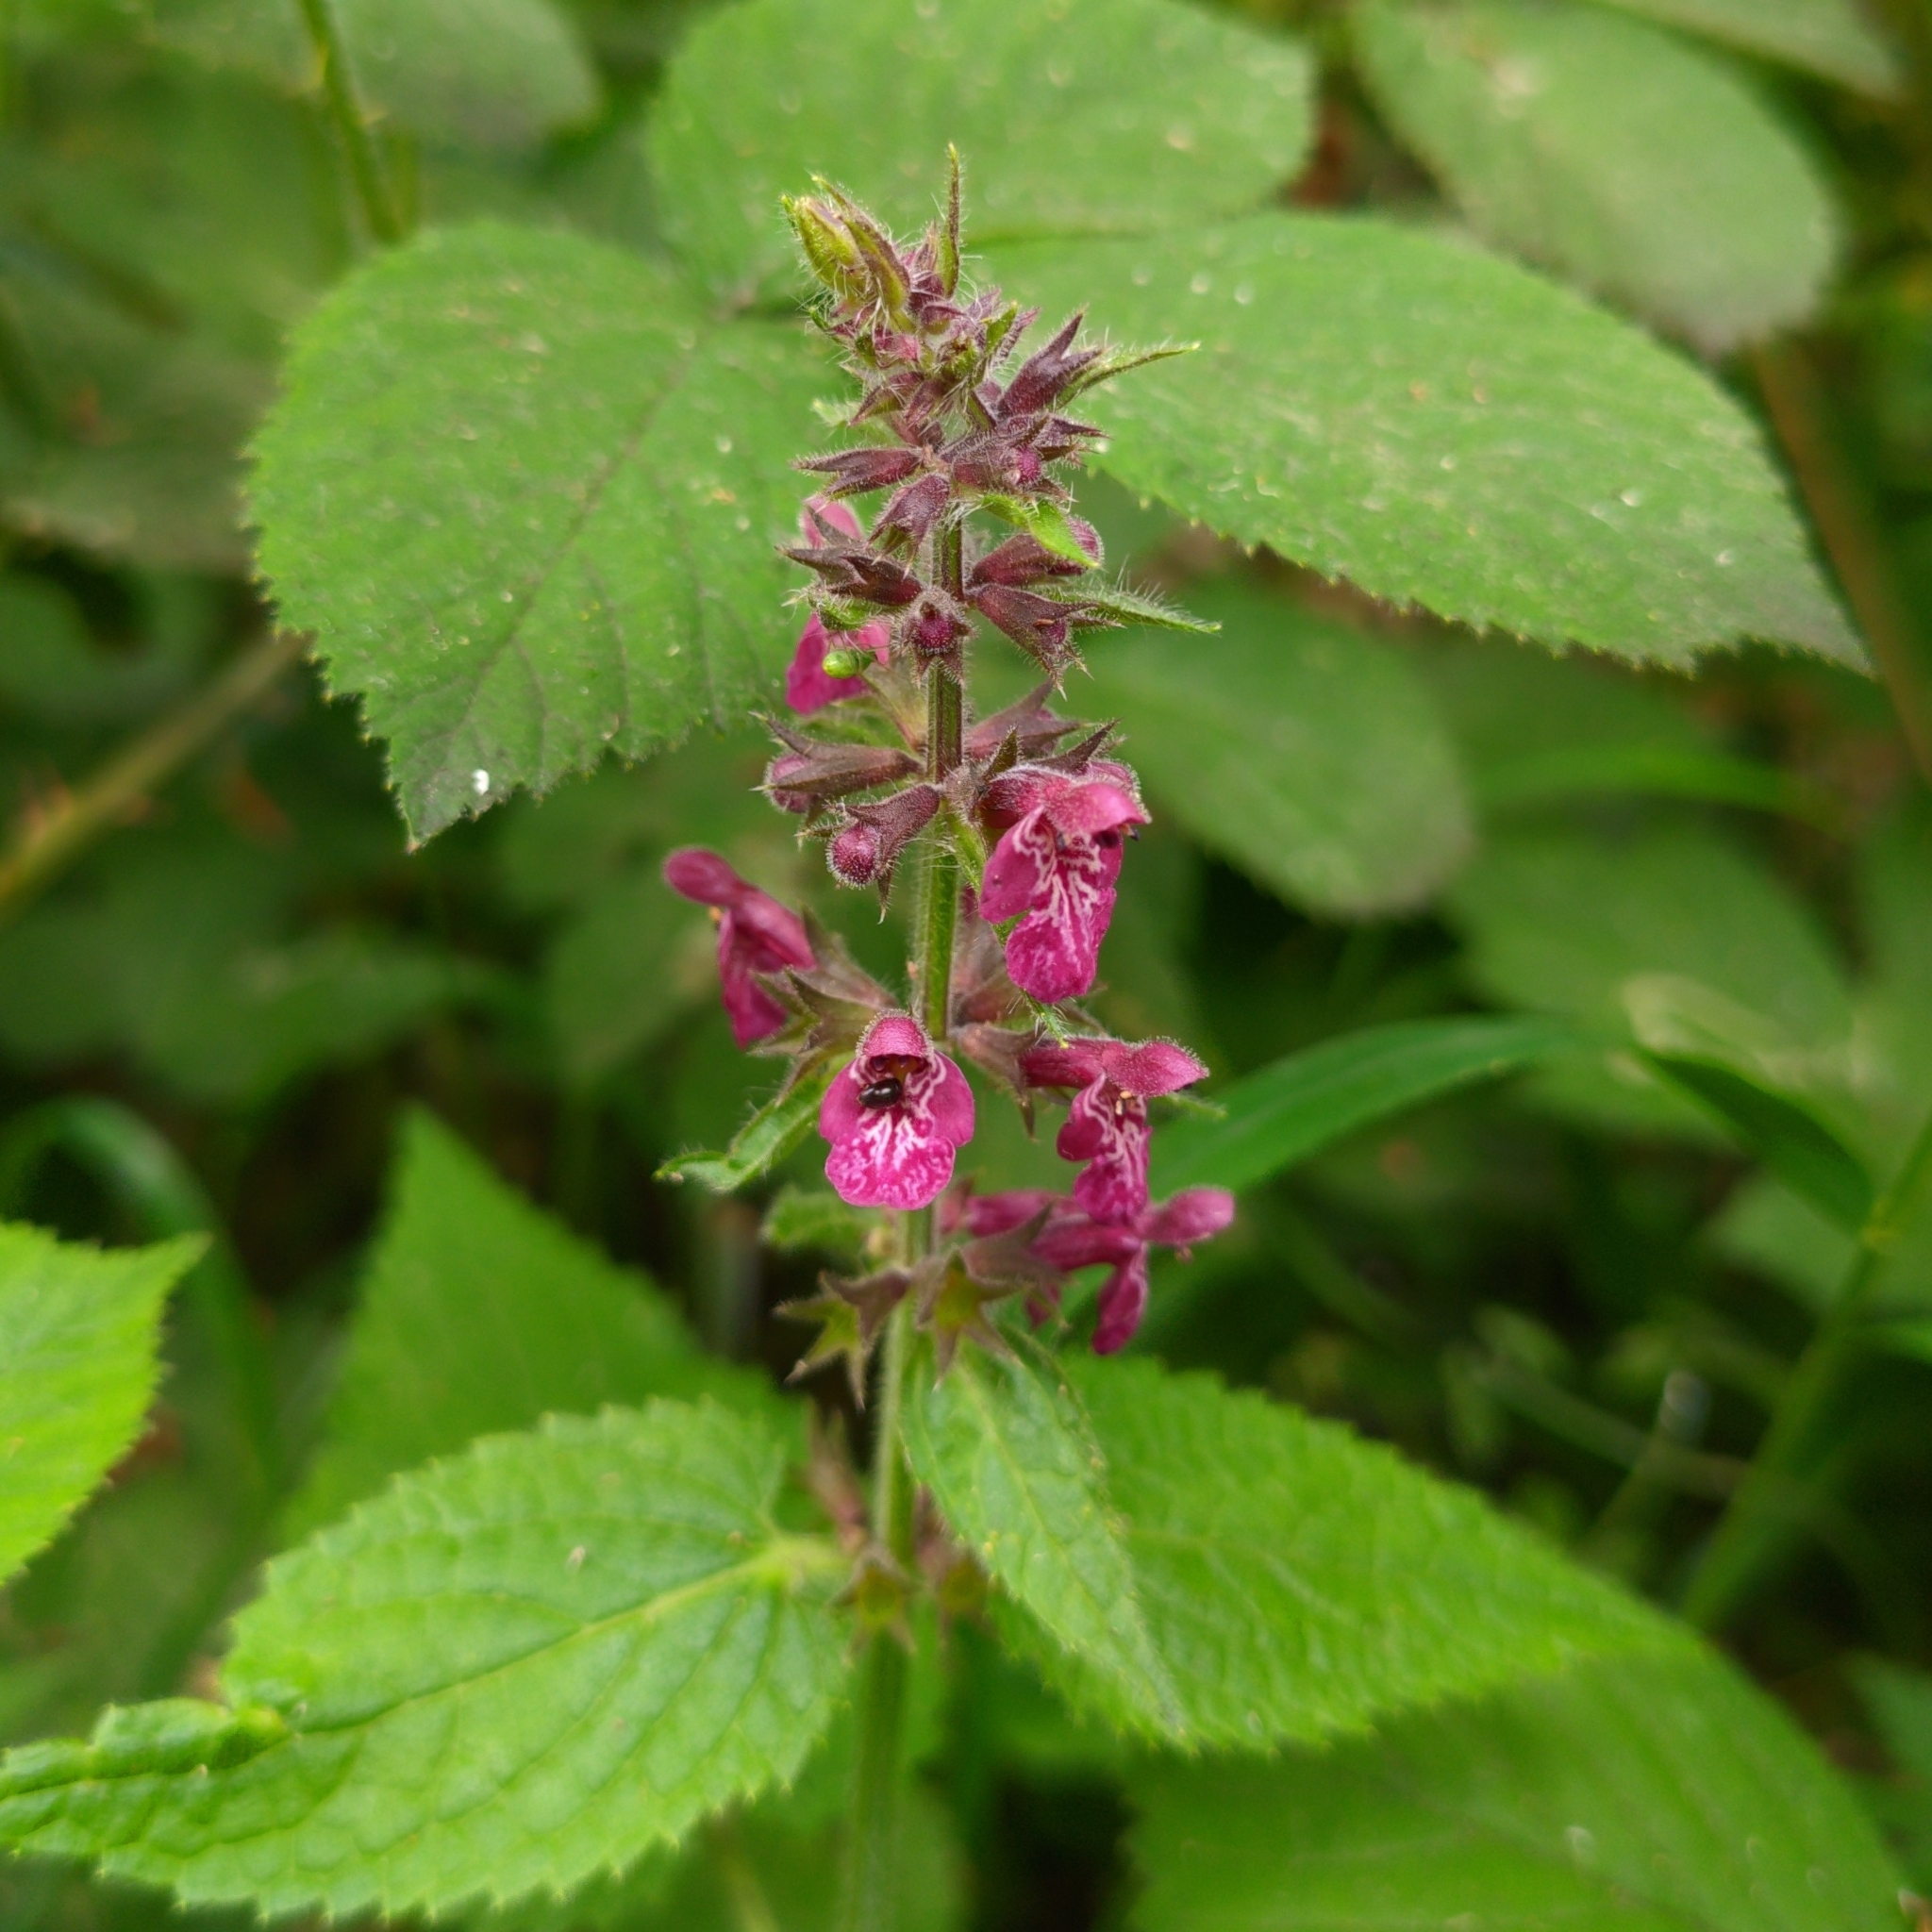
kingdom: Plantae
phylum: Tracheophyta
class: Magnoliopsida
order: Lamiales
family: Lamiaceae
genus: Stachys
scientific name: Stachys sylvatica
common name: Hedge woundwort
